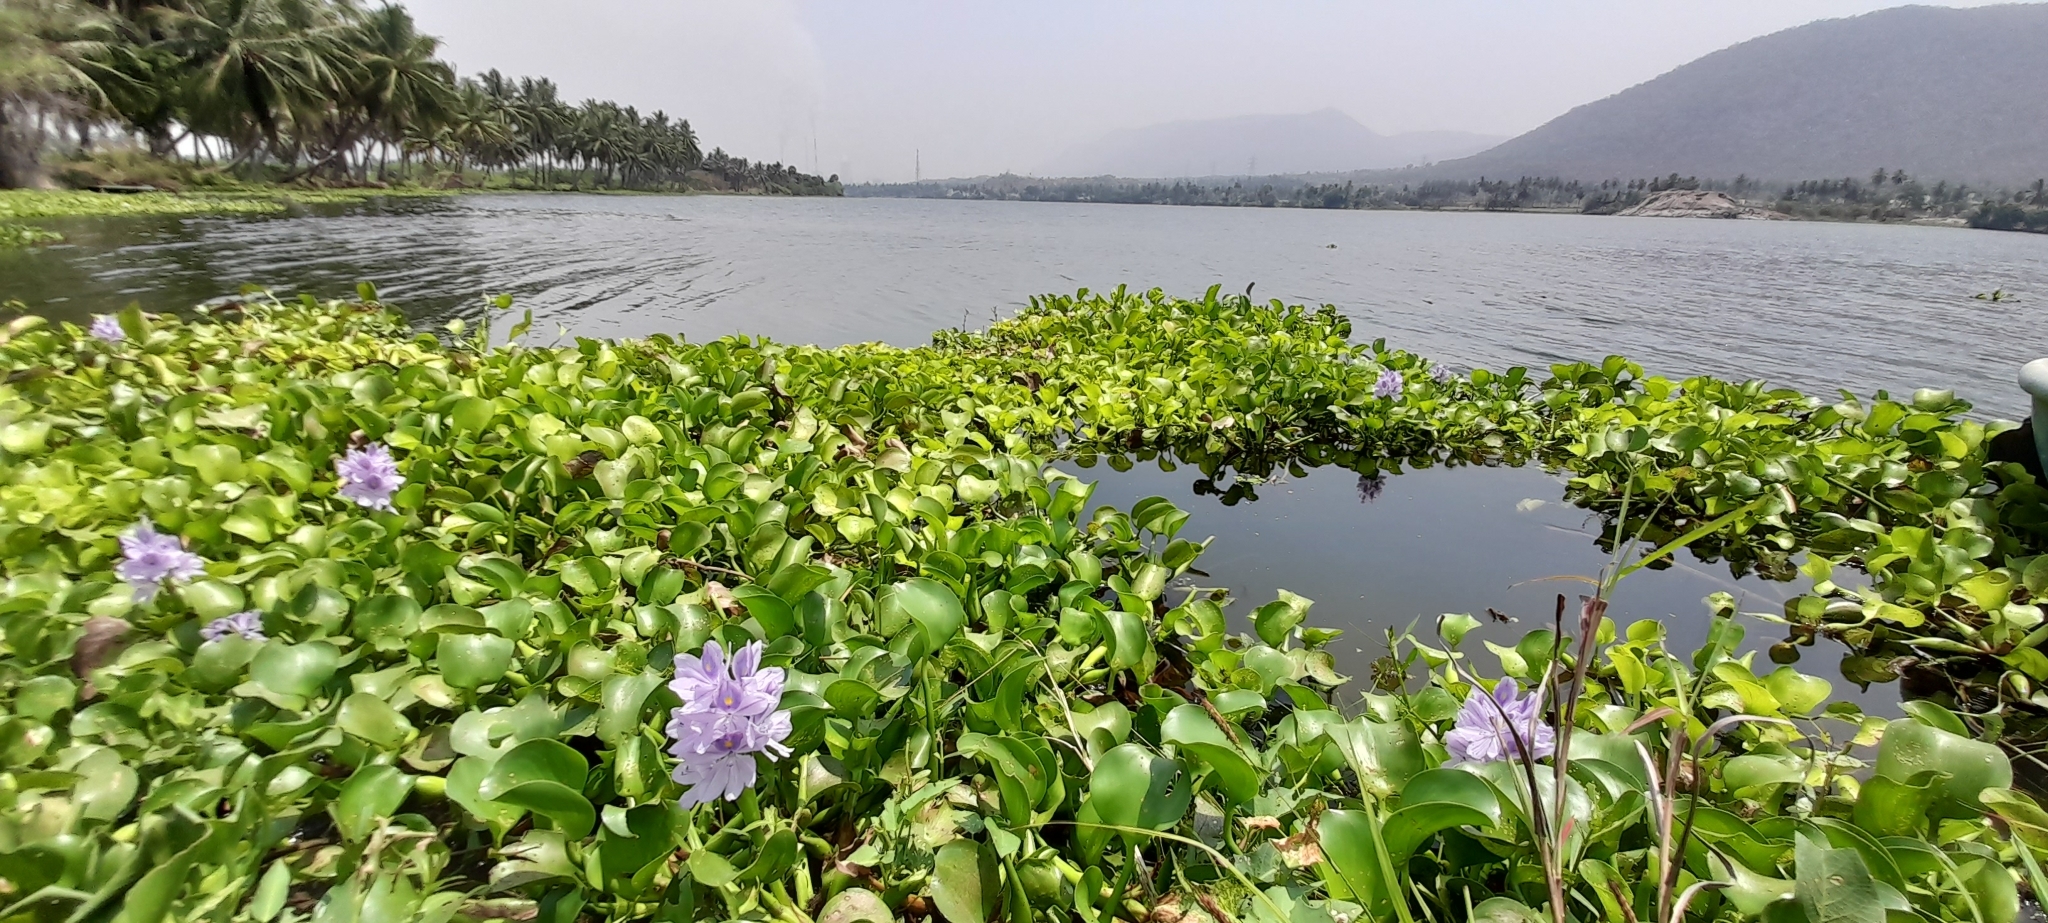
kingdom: Plantae
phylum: Tracheophyta
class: Liliopsida
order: Commelinales
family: Pontederiaceae
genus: Pontederia
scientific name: Pontederia crassipes
